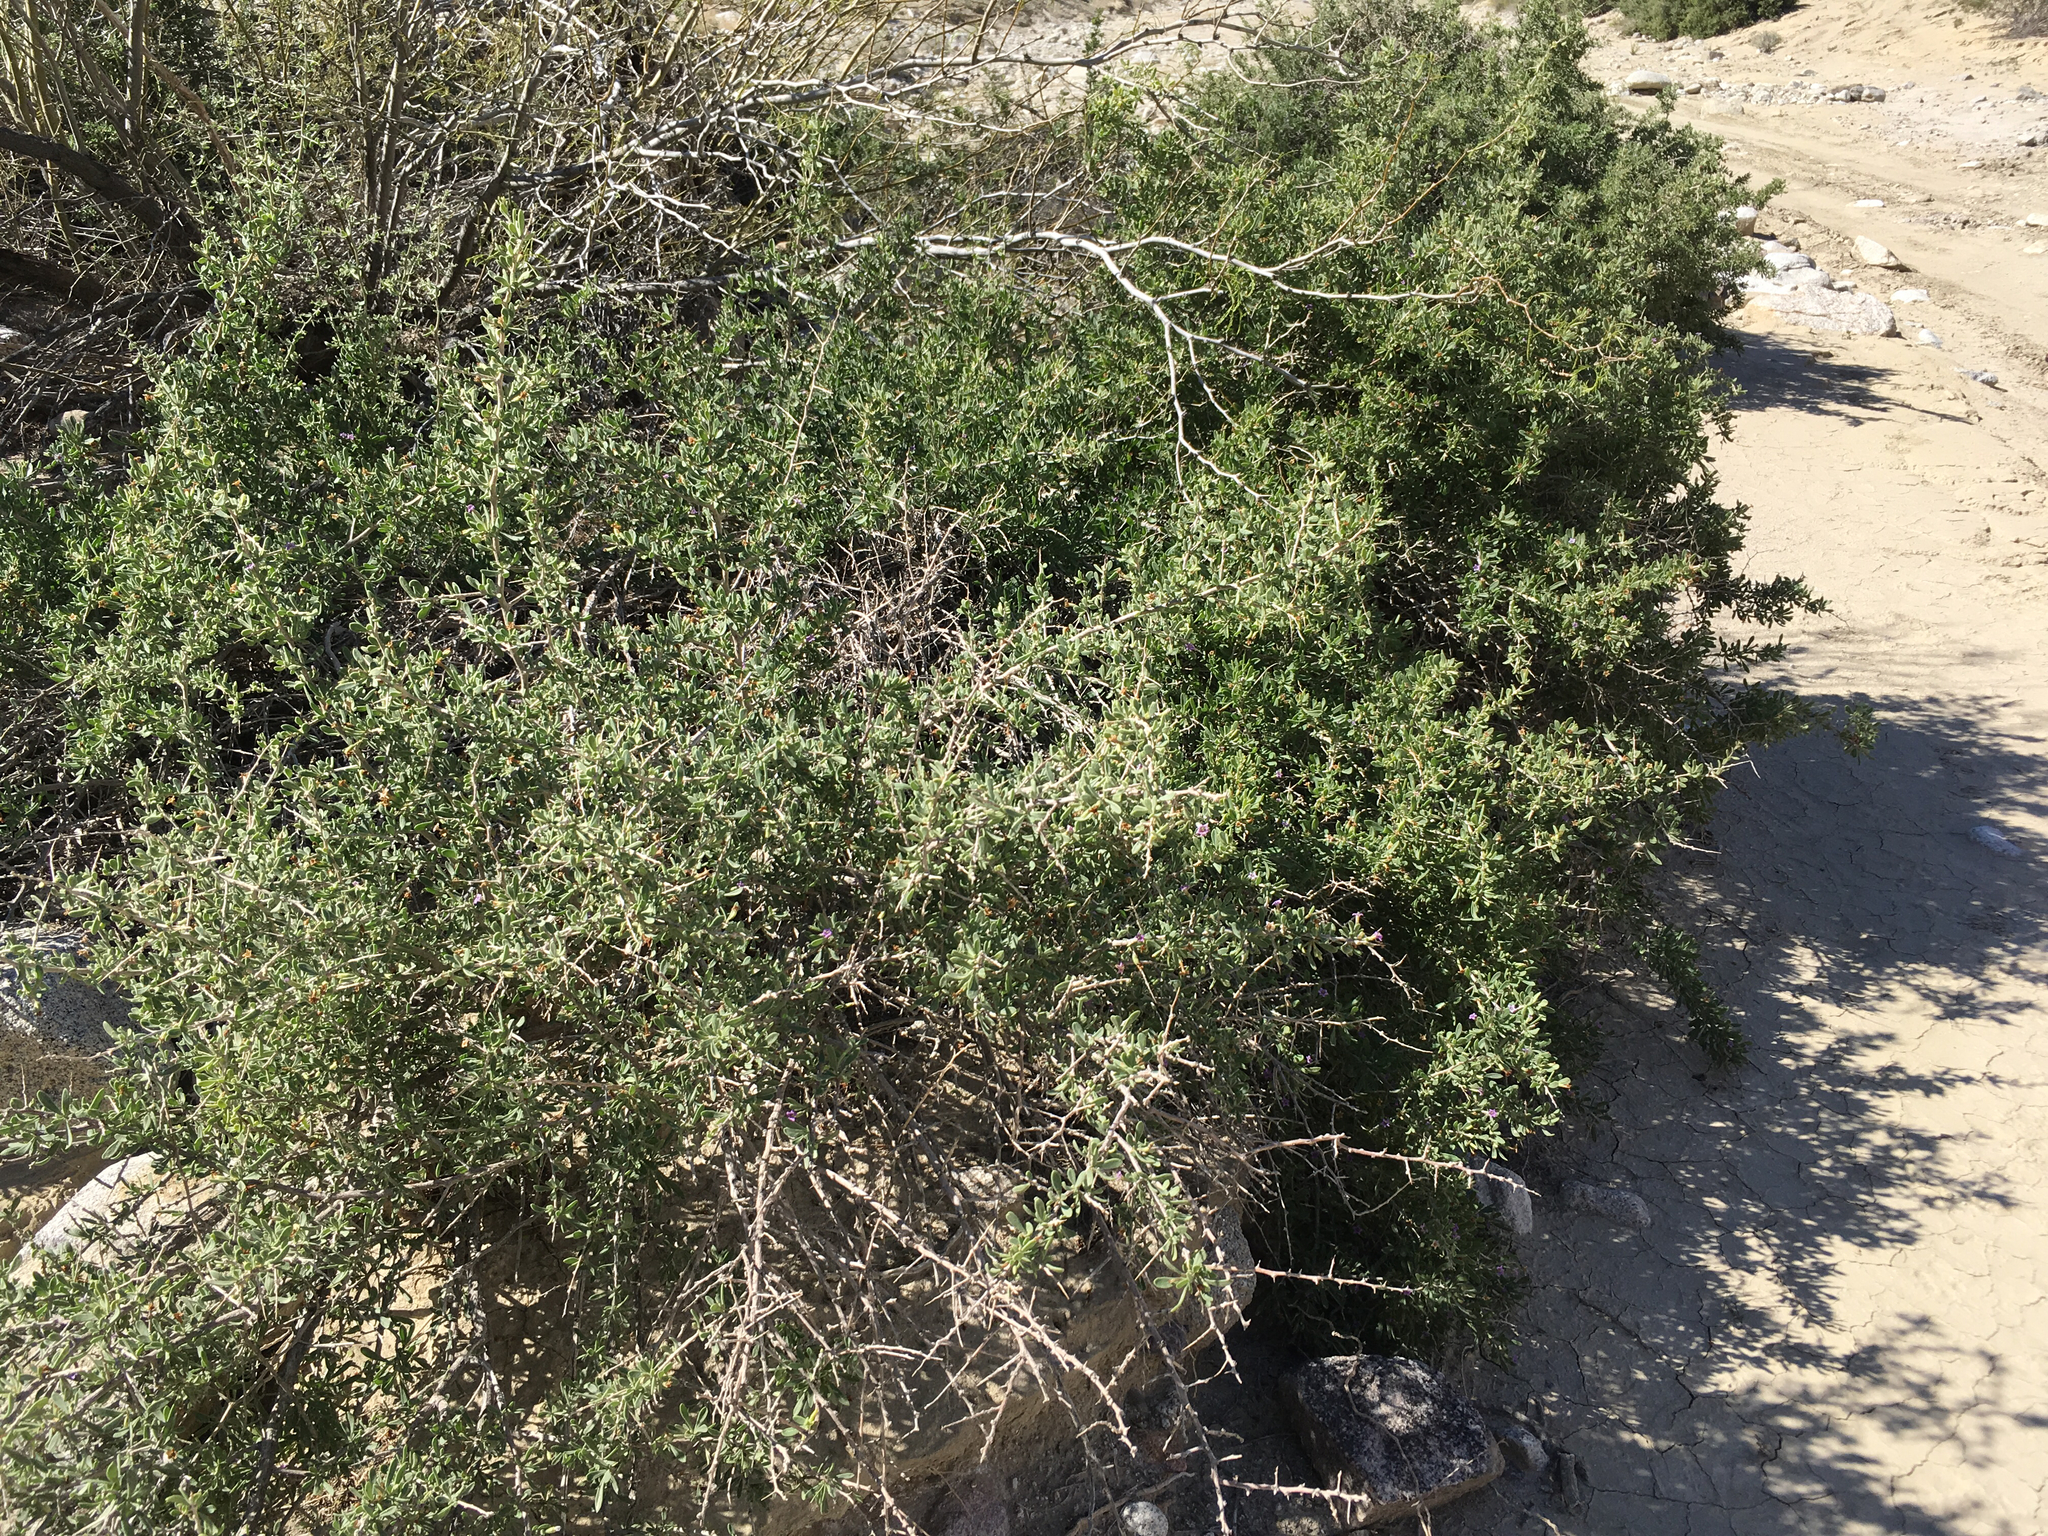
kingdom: Plantae
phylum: Tracheophyta
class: Magnoliopsida
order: Solanales
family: Solanaceae
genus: Lycium
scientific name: Lycium fremontii
